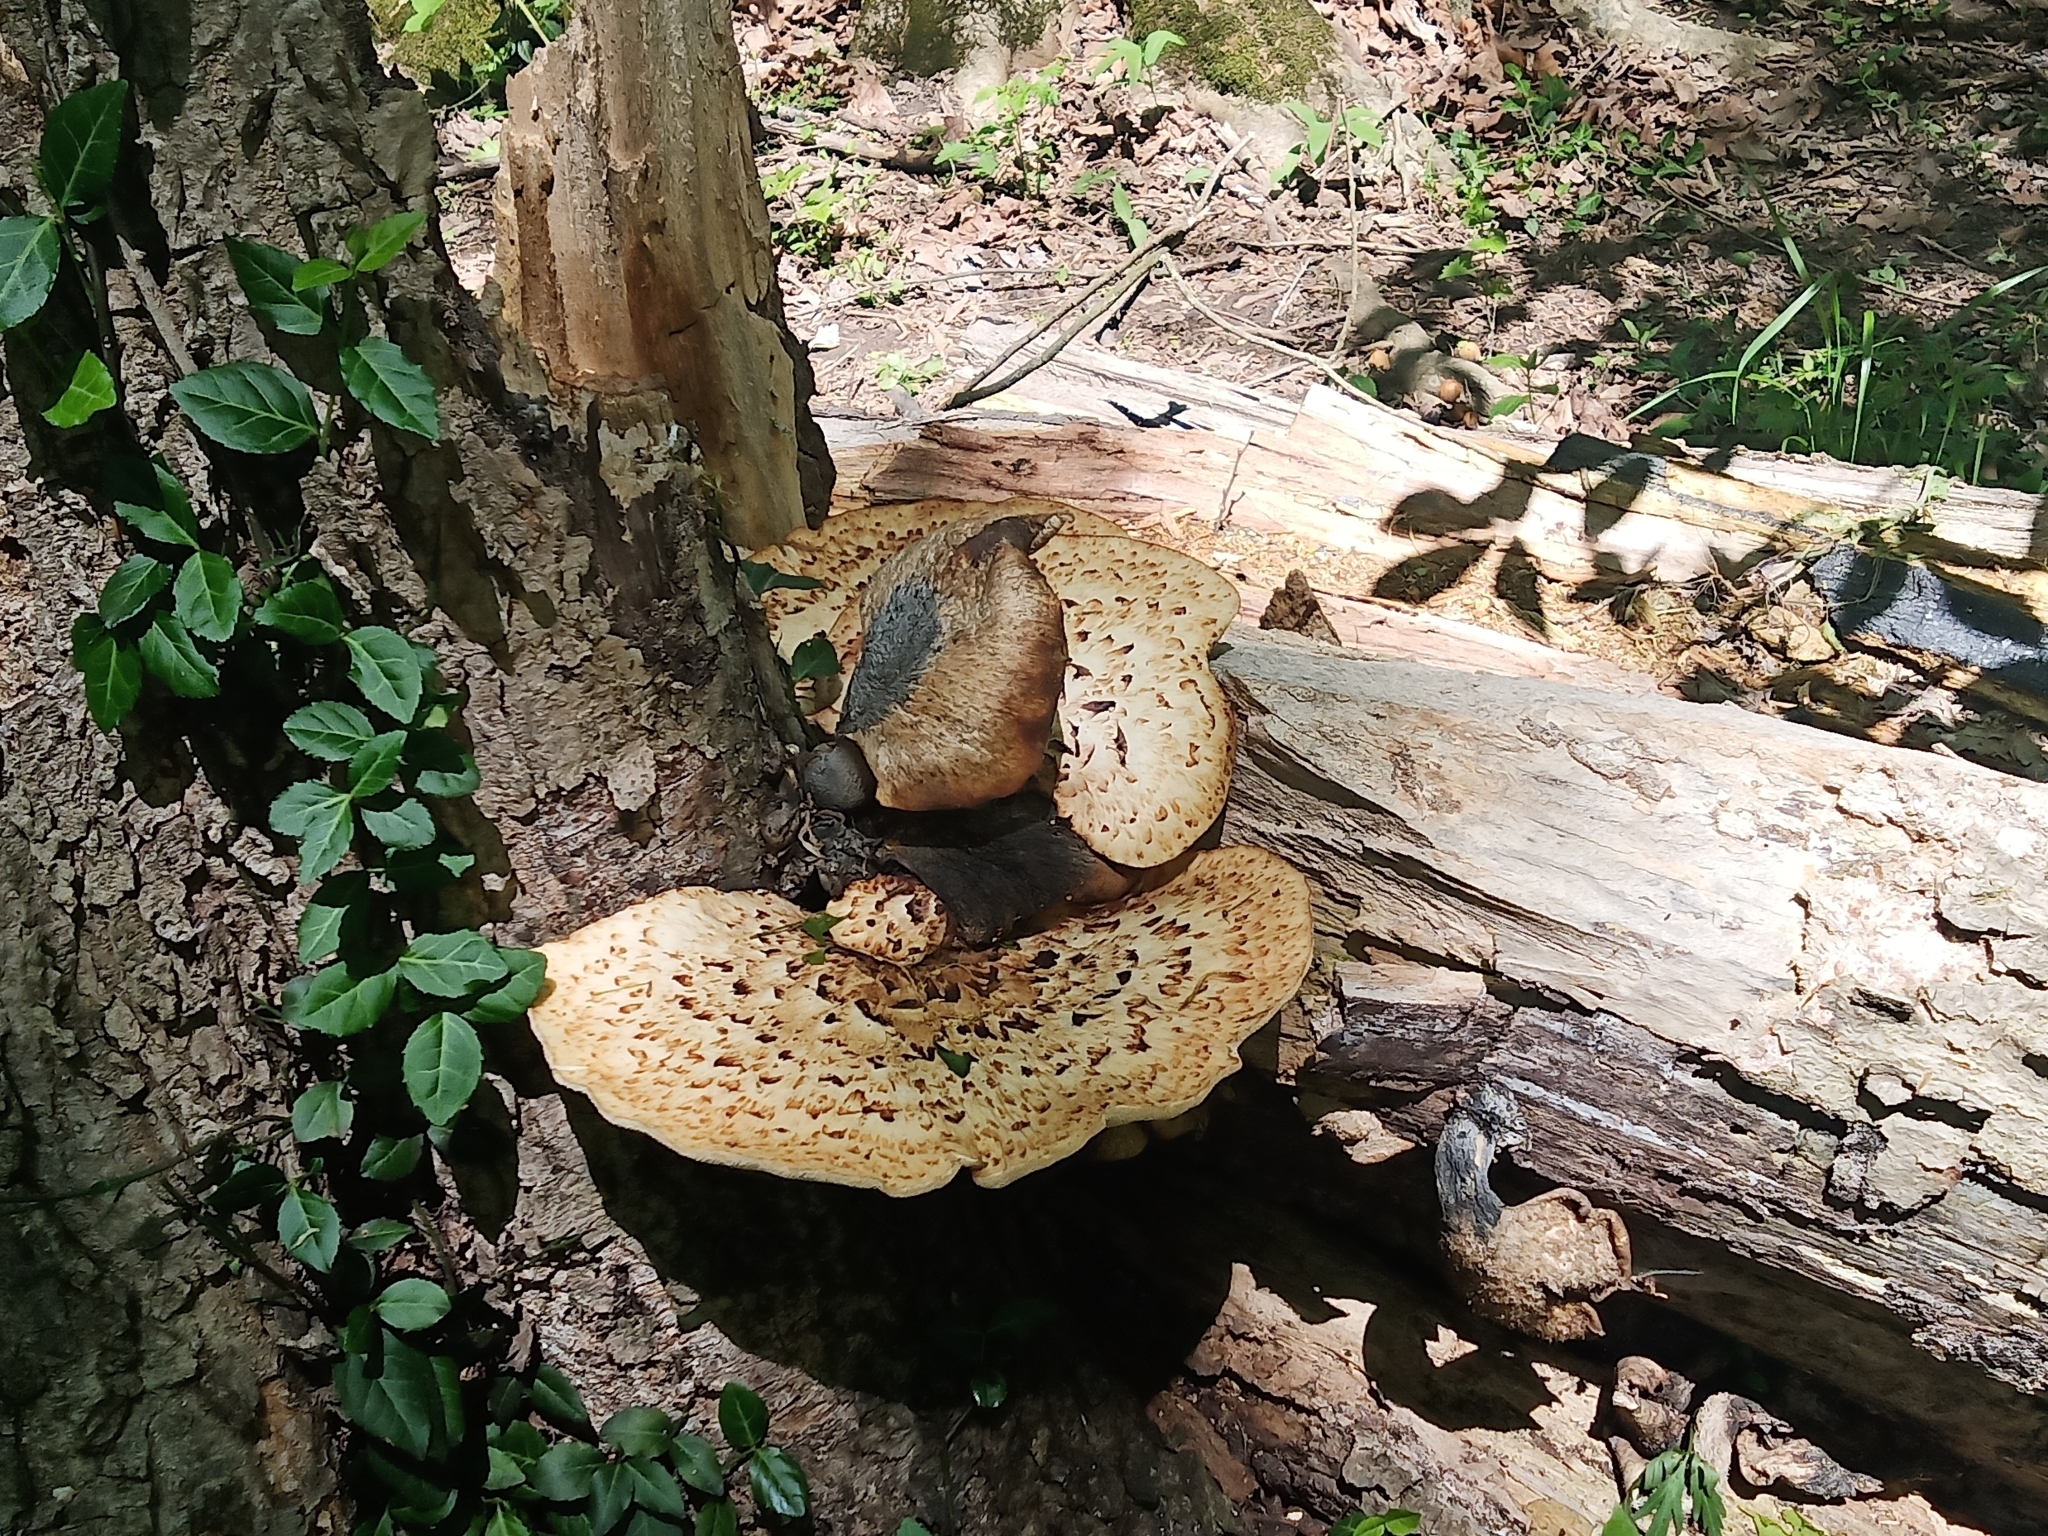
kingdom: Fungi
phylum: Basidiomycota
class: Agaricomycetes
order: Polyporales
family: Polyporaceae
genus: Cerioporus
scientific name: Cerioporus squamosus
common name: Dryad's saddle
